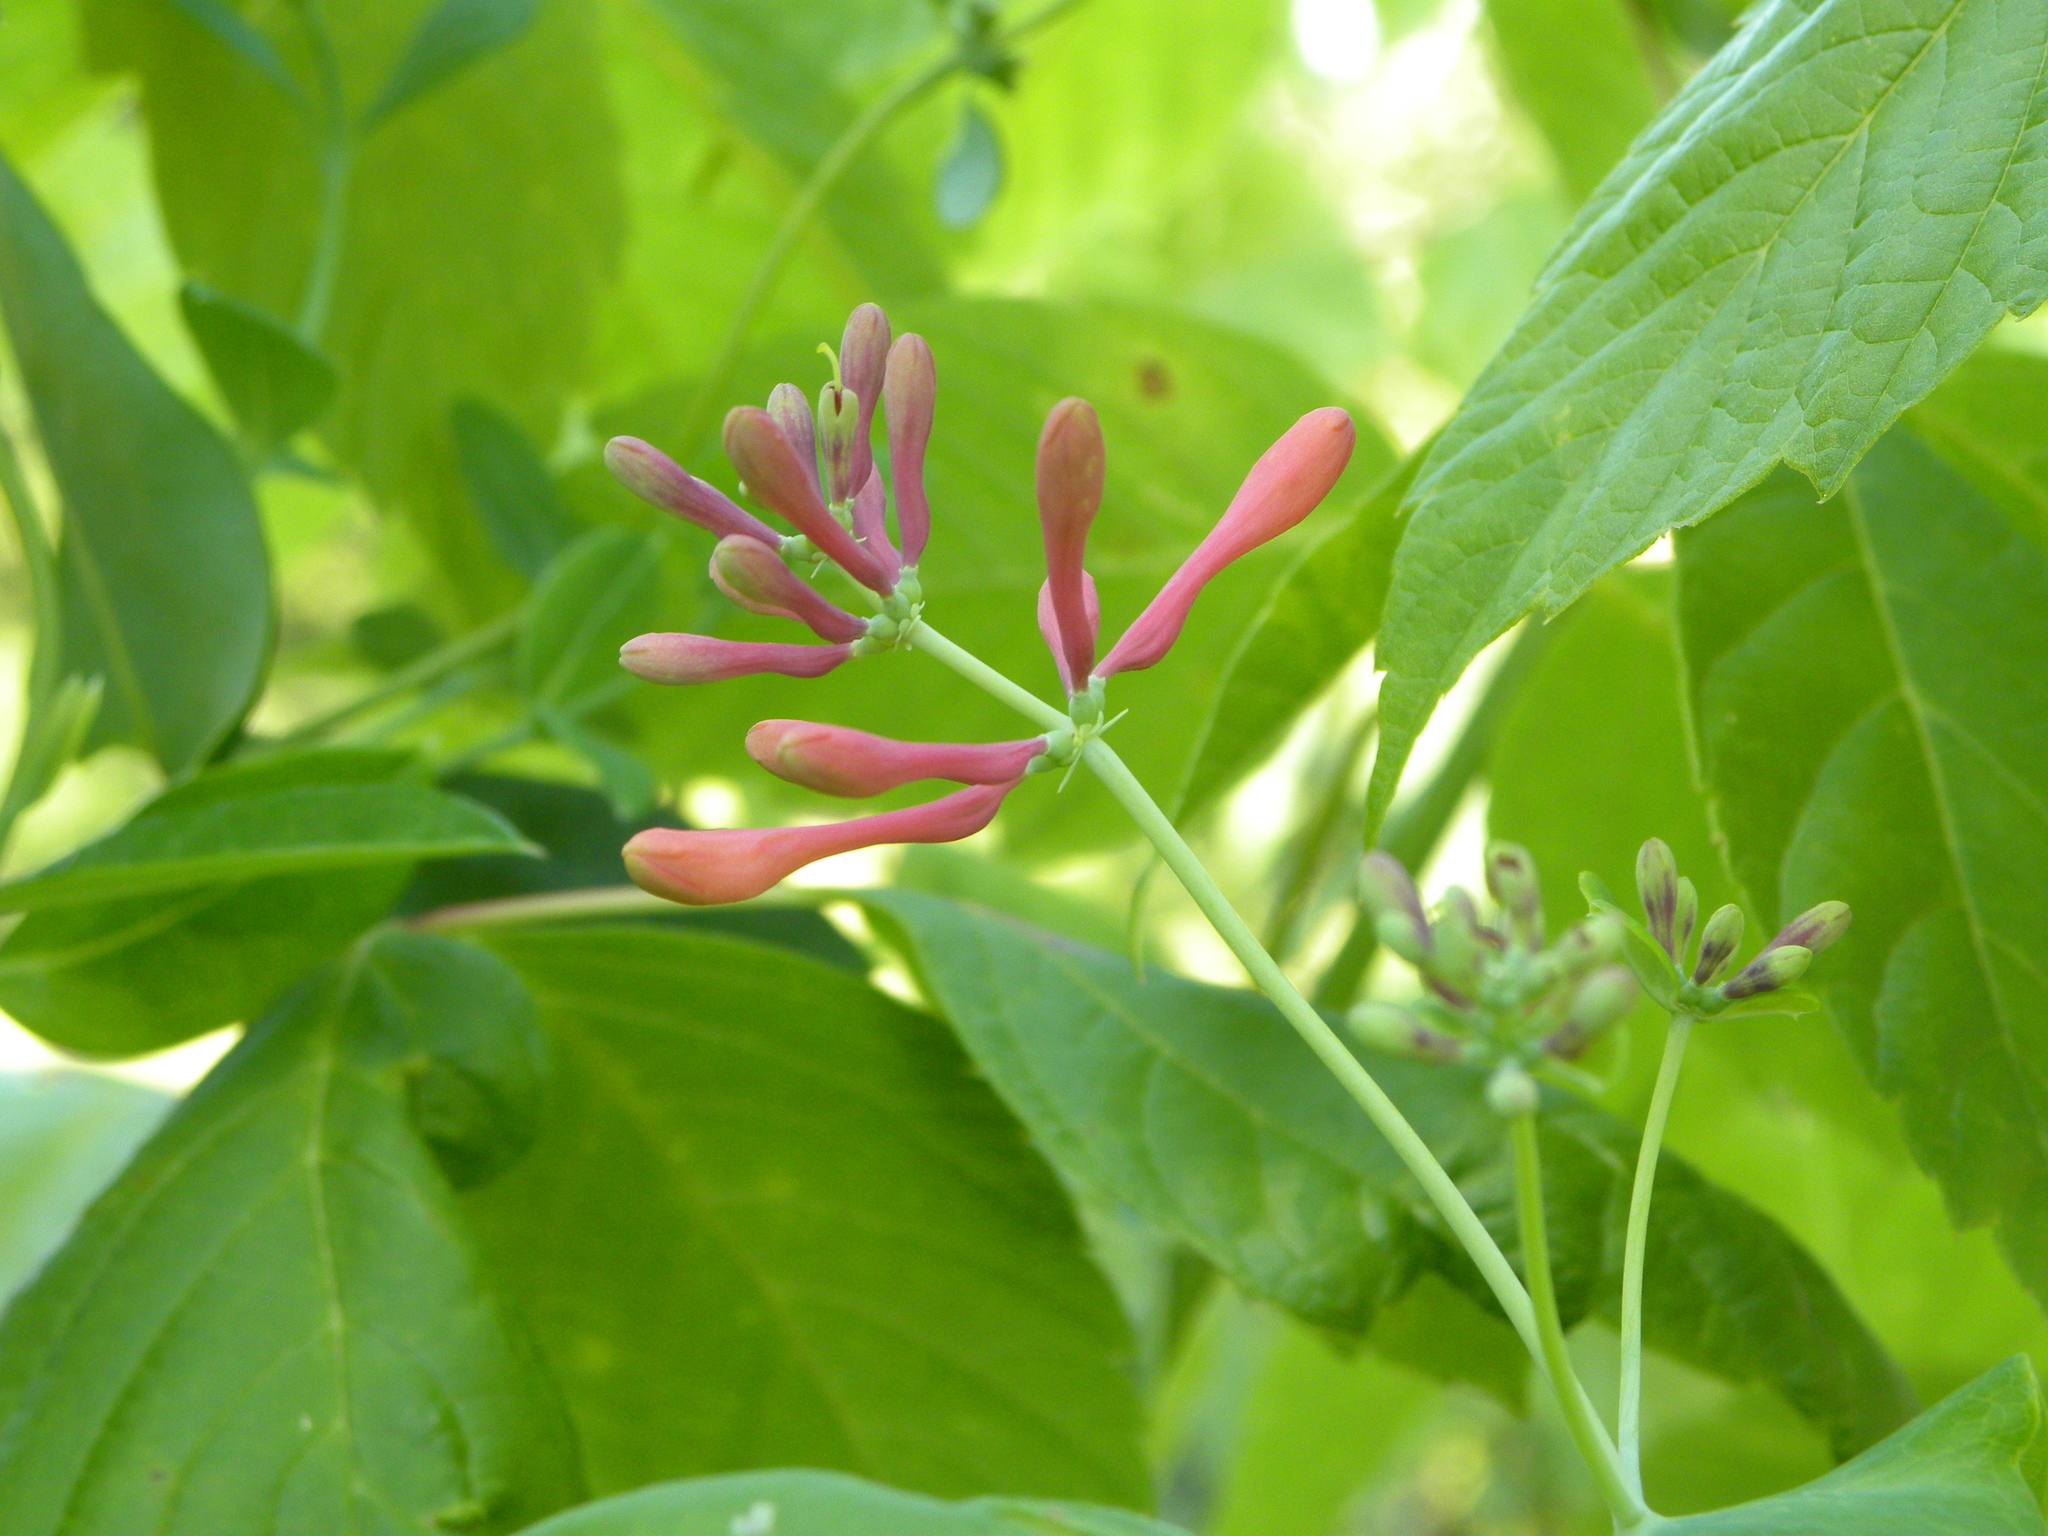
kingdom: Plantae
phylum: Tracheophyta
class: Magnoliopsida
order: Dipsacales
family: Caprifoliaceae
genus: Lonicera
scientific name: Lonicera sempervirens
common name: Coral honeysuckle
